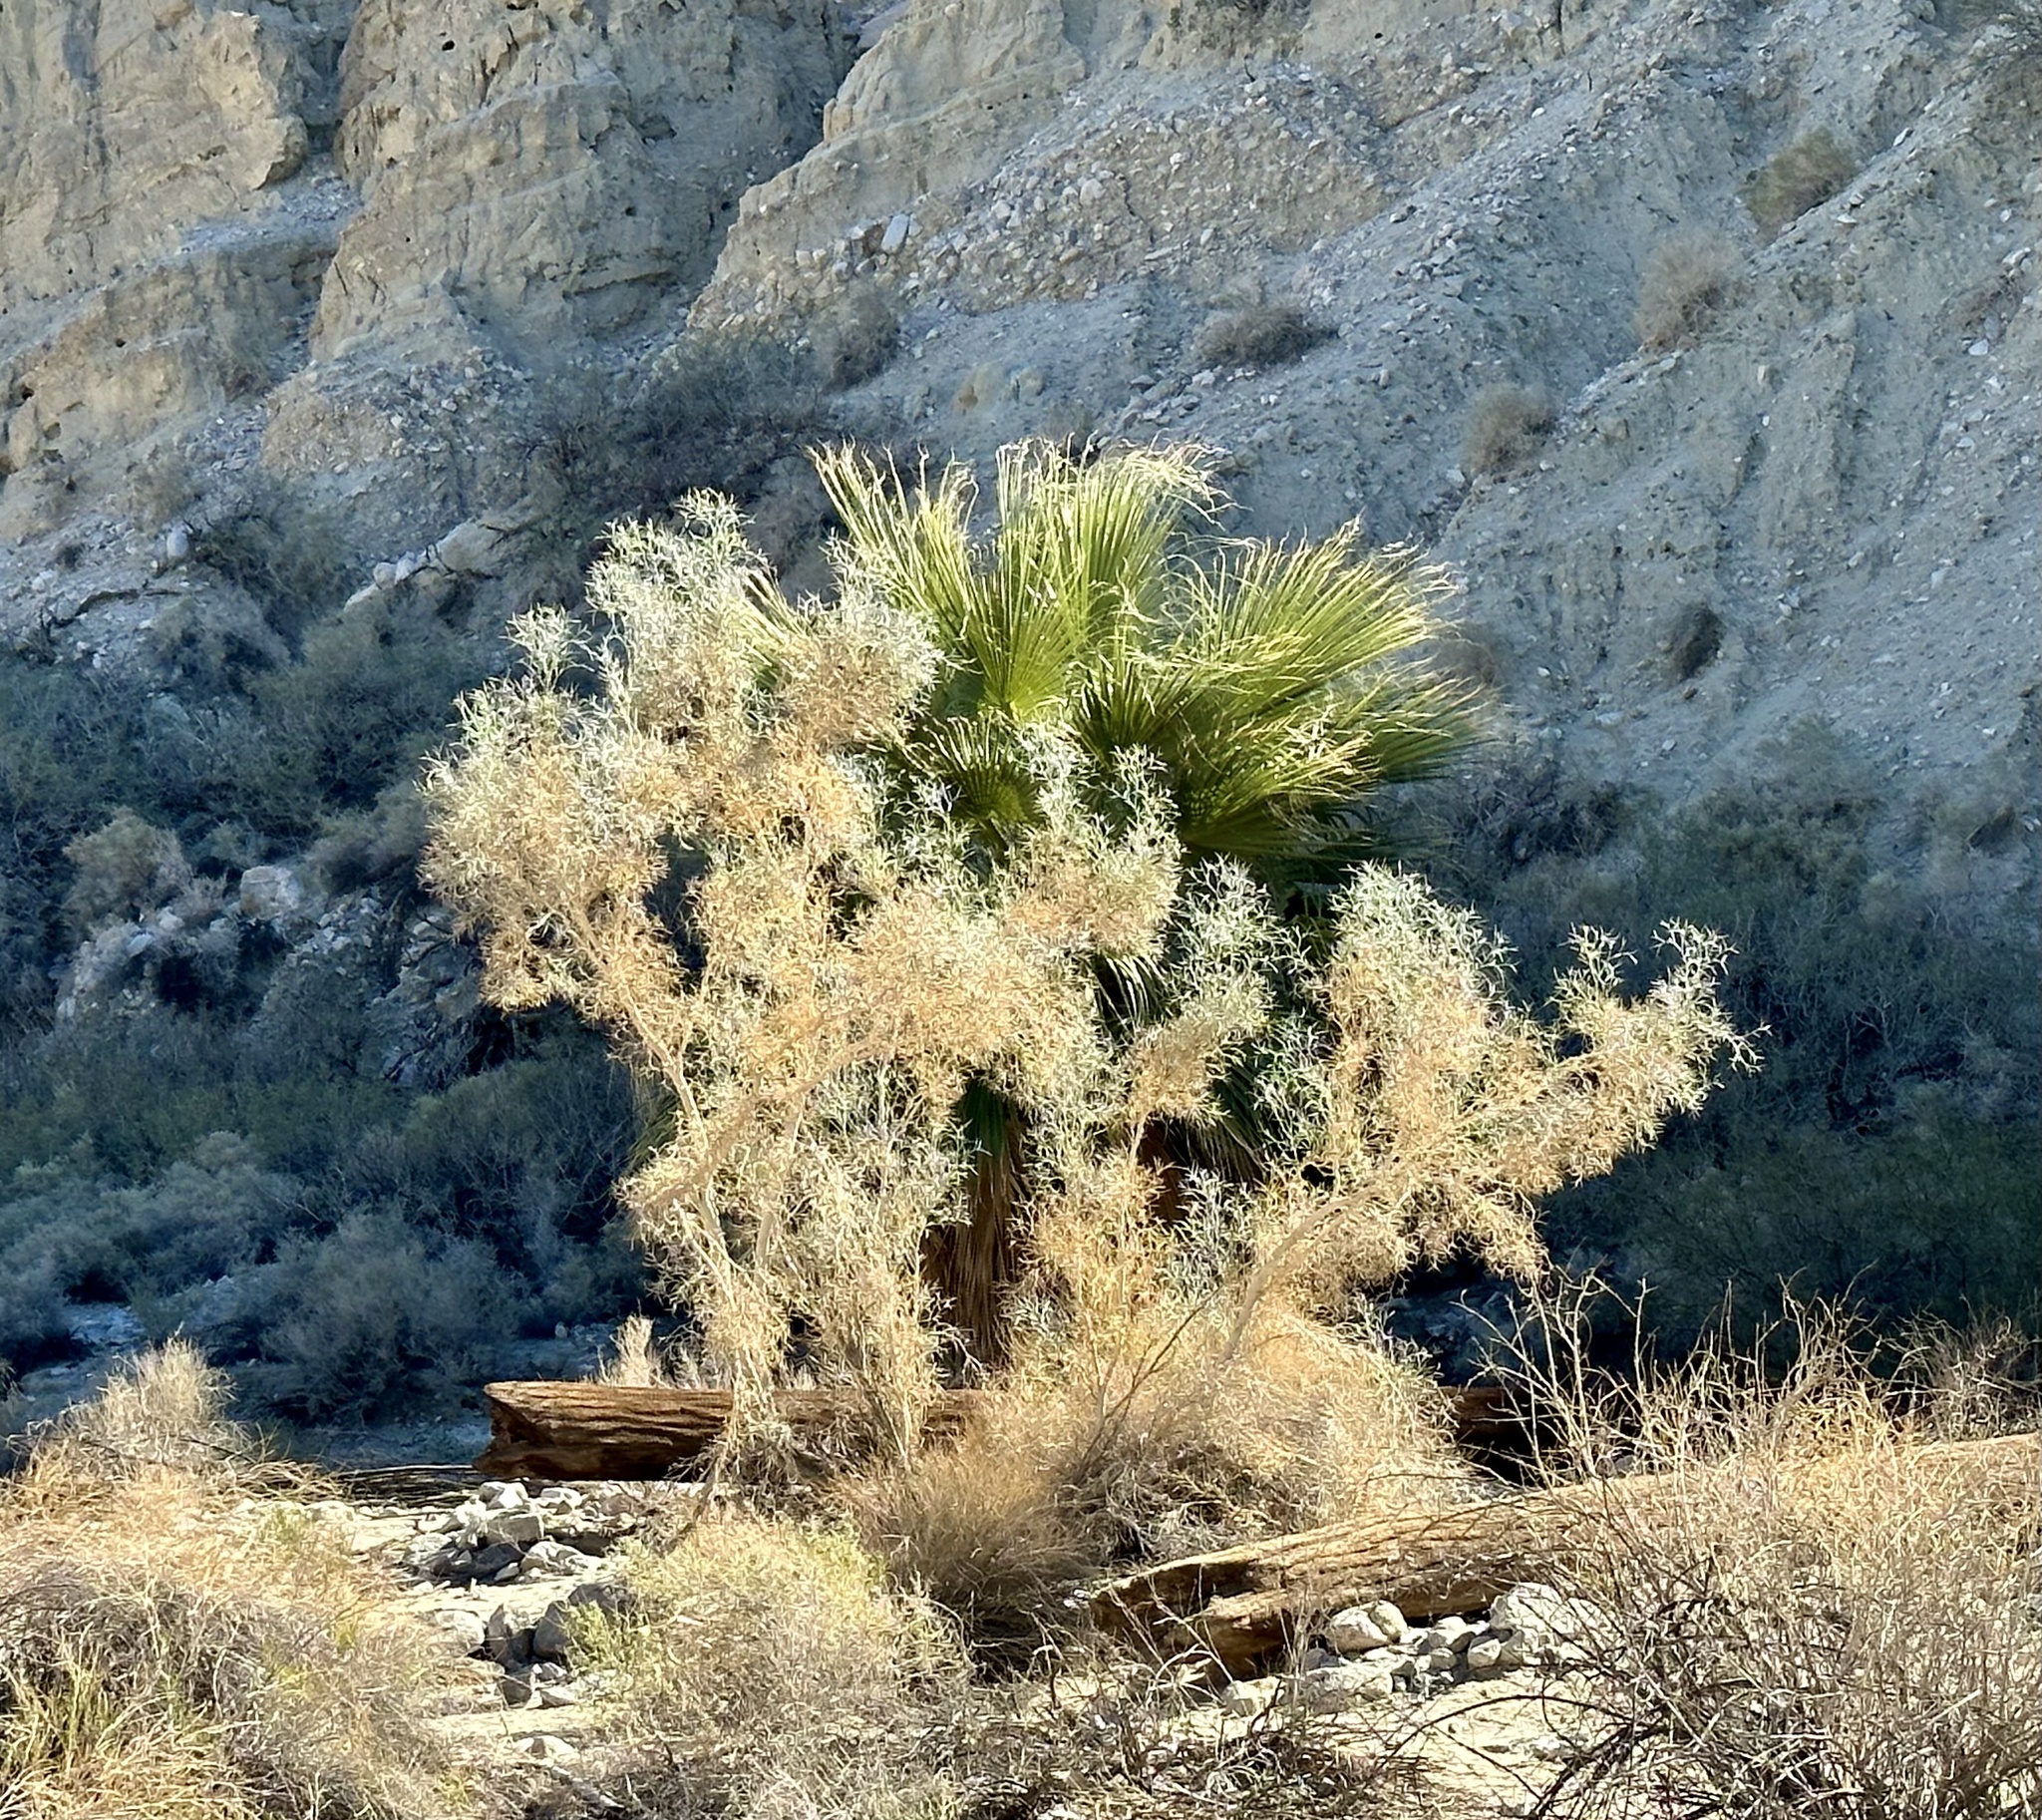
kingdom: Plantae
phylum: Tracheophyta
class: Magnoliopsida
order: Fabales
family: Fabaceae
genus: Psorothamnus
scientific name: Psorothamnus spinosus
